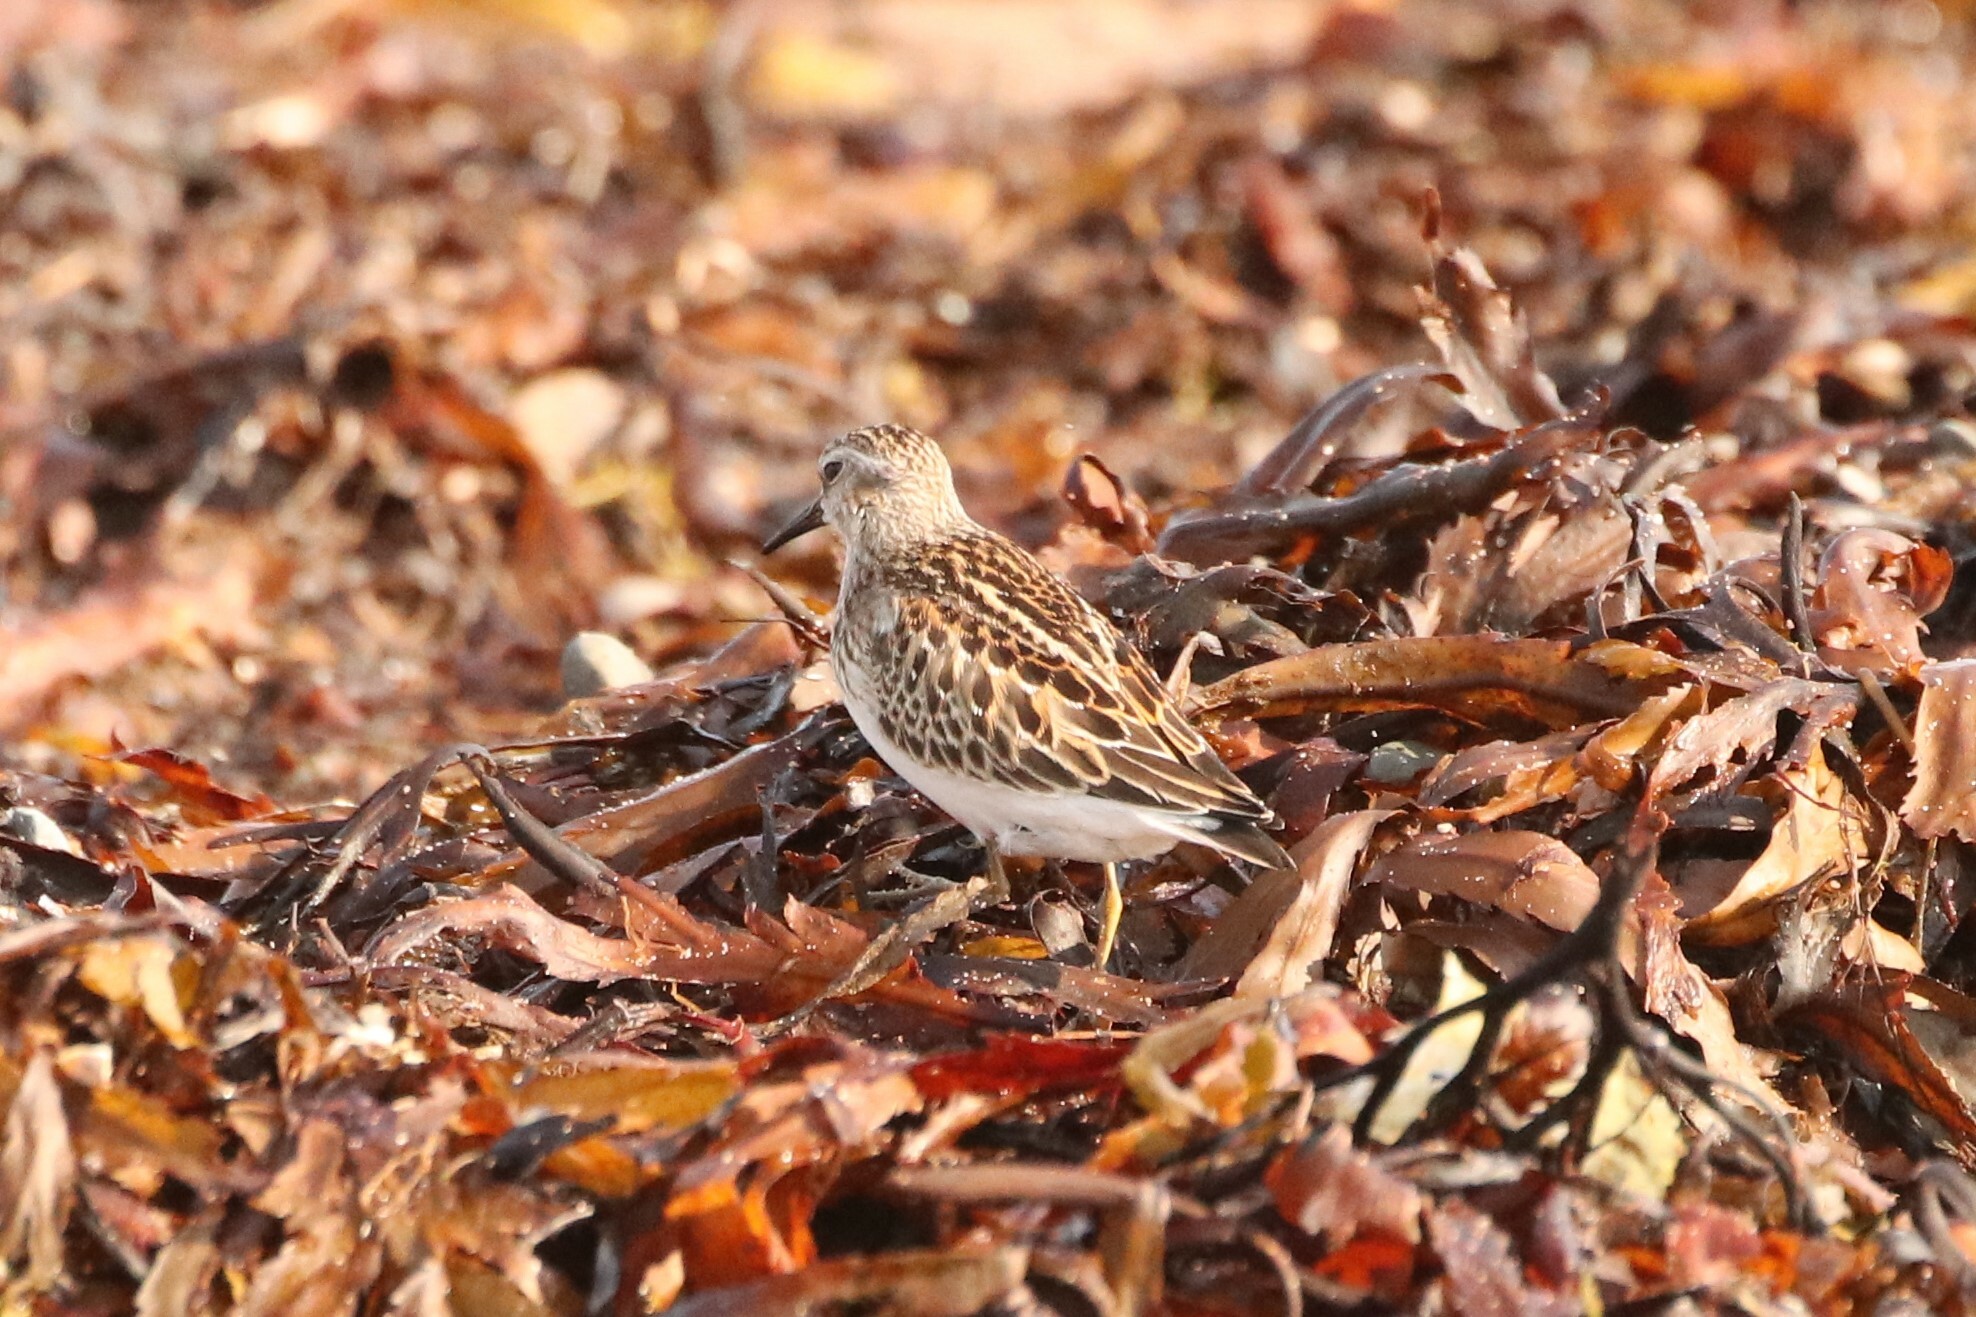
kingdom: Animalia
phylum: Chordata
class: Aves
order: Charadriiformes
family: Scolopacidae
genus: Calidris
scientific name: Calidris minutilla
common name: Least sandpiper
